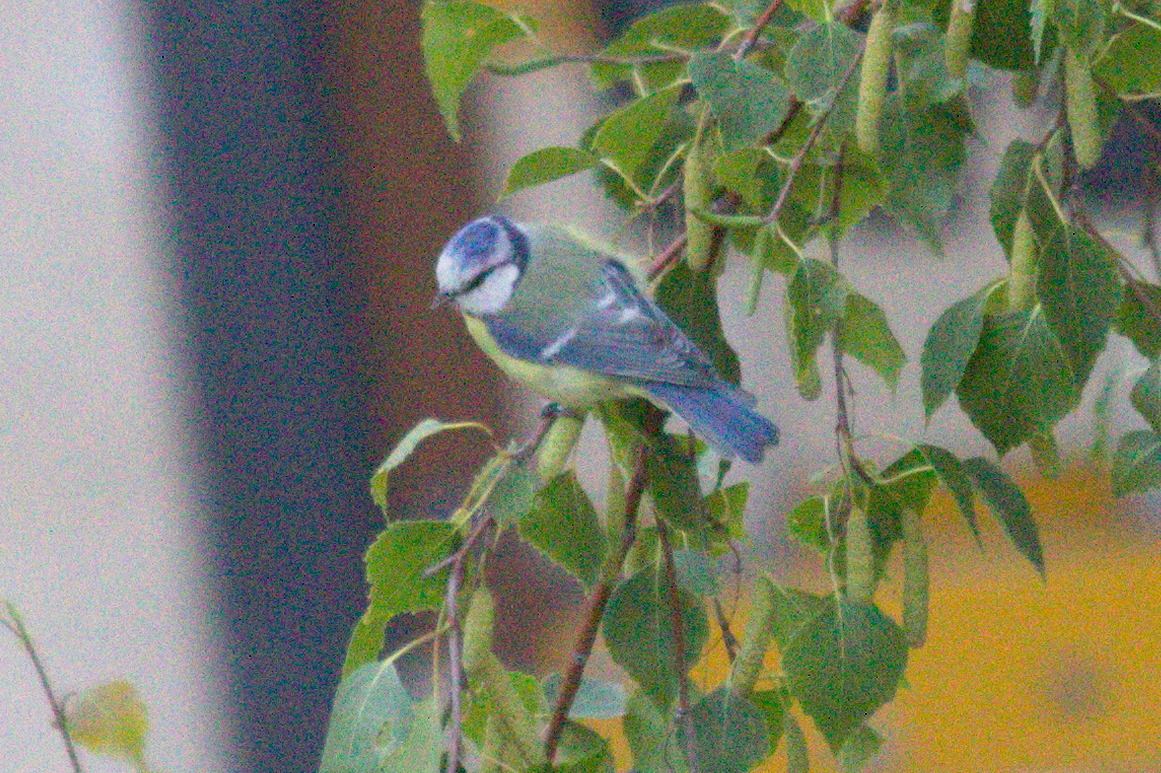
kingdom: Animalia
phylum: Chordata
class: Aves
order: Passeriformes
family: Paridae
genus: Cyanistes
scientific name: Cyanistes caeruleus
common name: Eurasian blue tit
